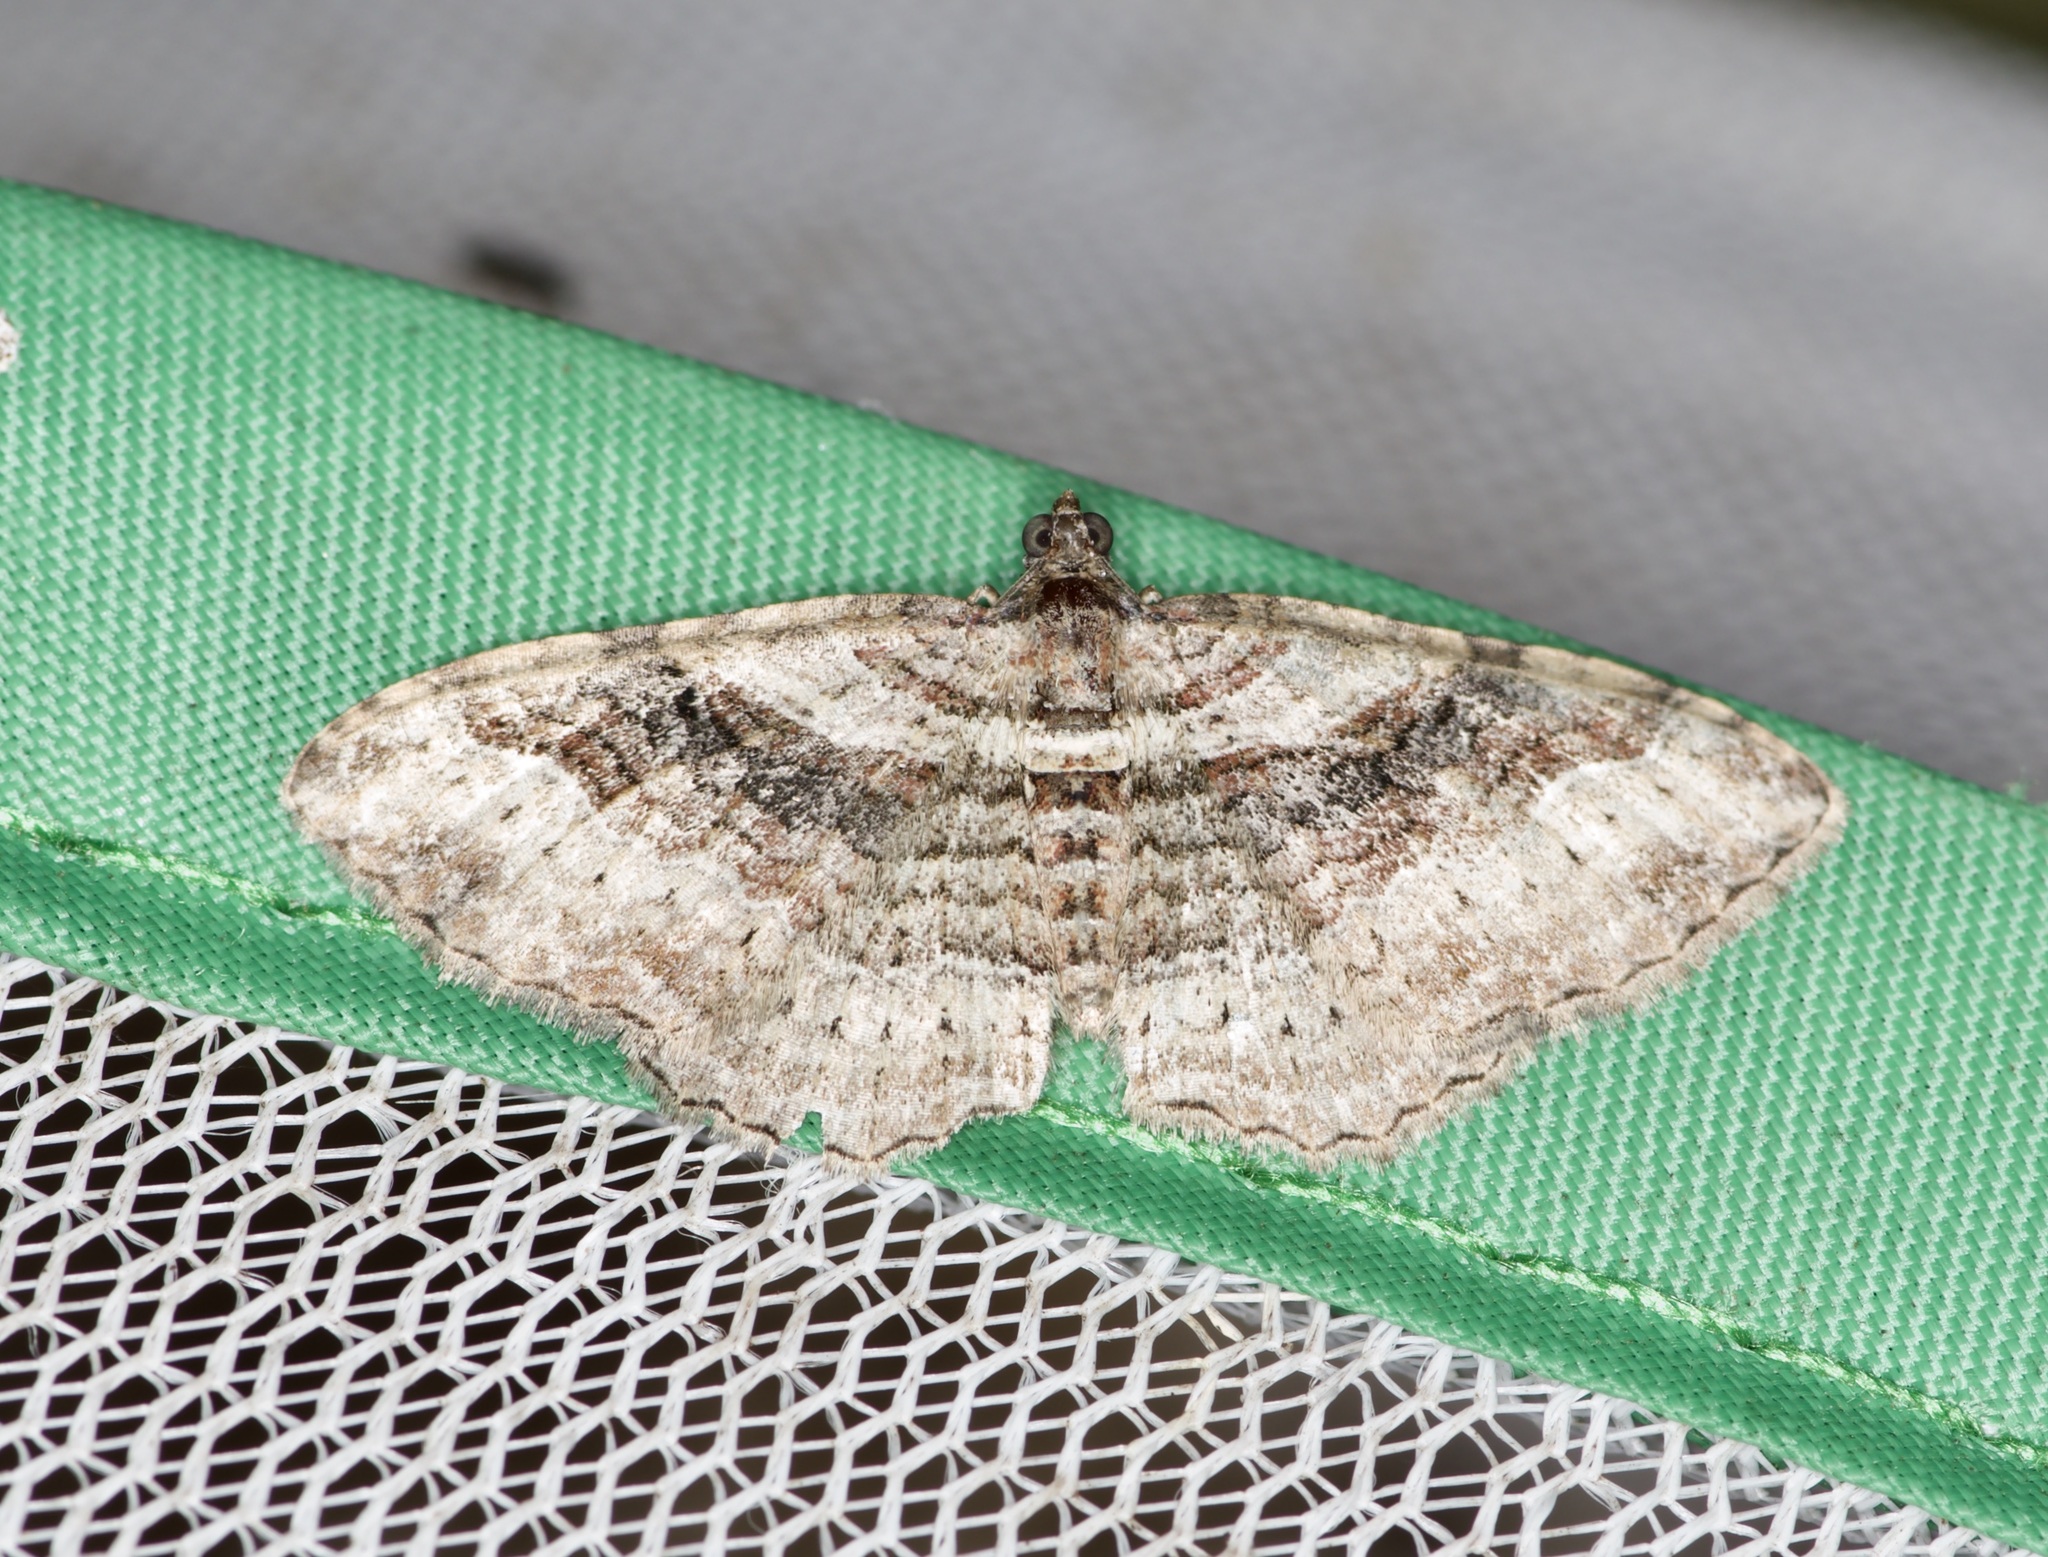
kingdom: Animalia
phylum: Arthropoda
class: Insecta
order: Lepidoptera
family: Geometridae
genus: Costaconvexa
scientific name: Costaconvexa centrostrigaria
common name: Bent-line carpet
